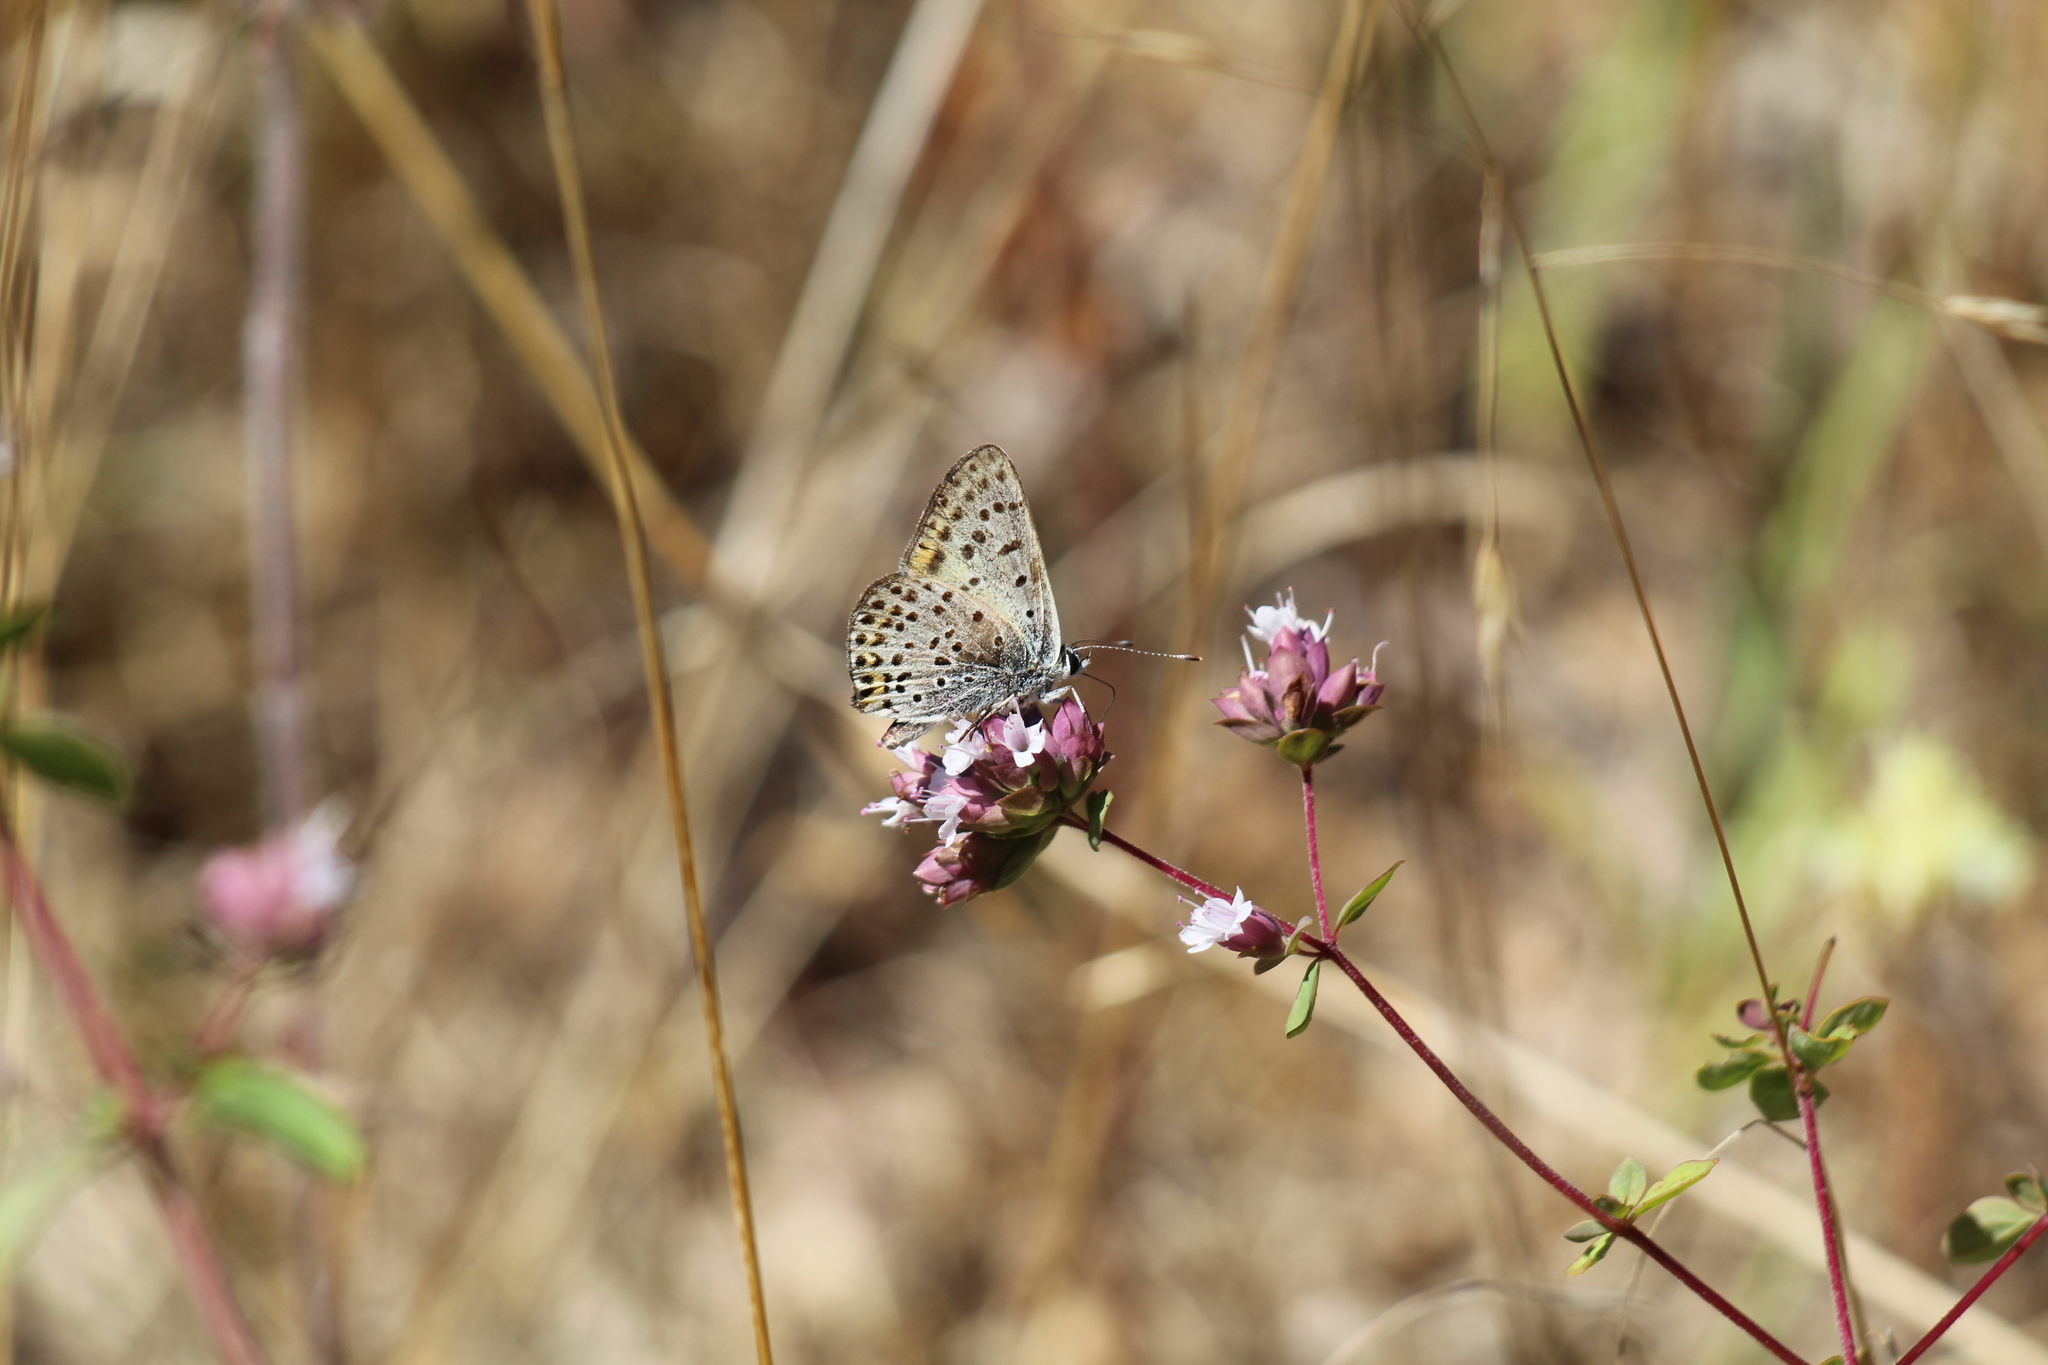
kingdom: Animalia
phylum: Arthropoda
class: Insecta
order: Lepidoptera
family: Lycaenidae
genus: Loweia
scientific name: Loweia tityrus
